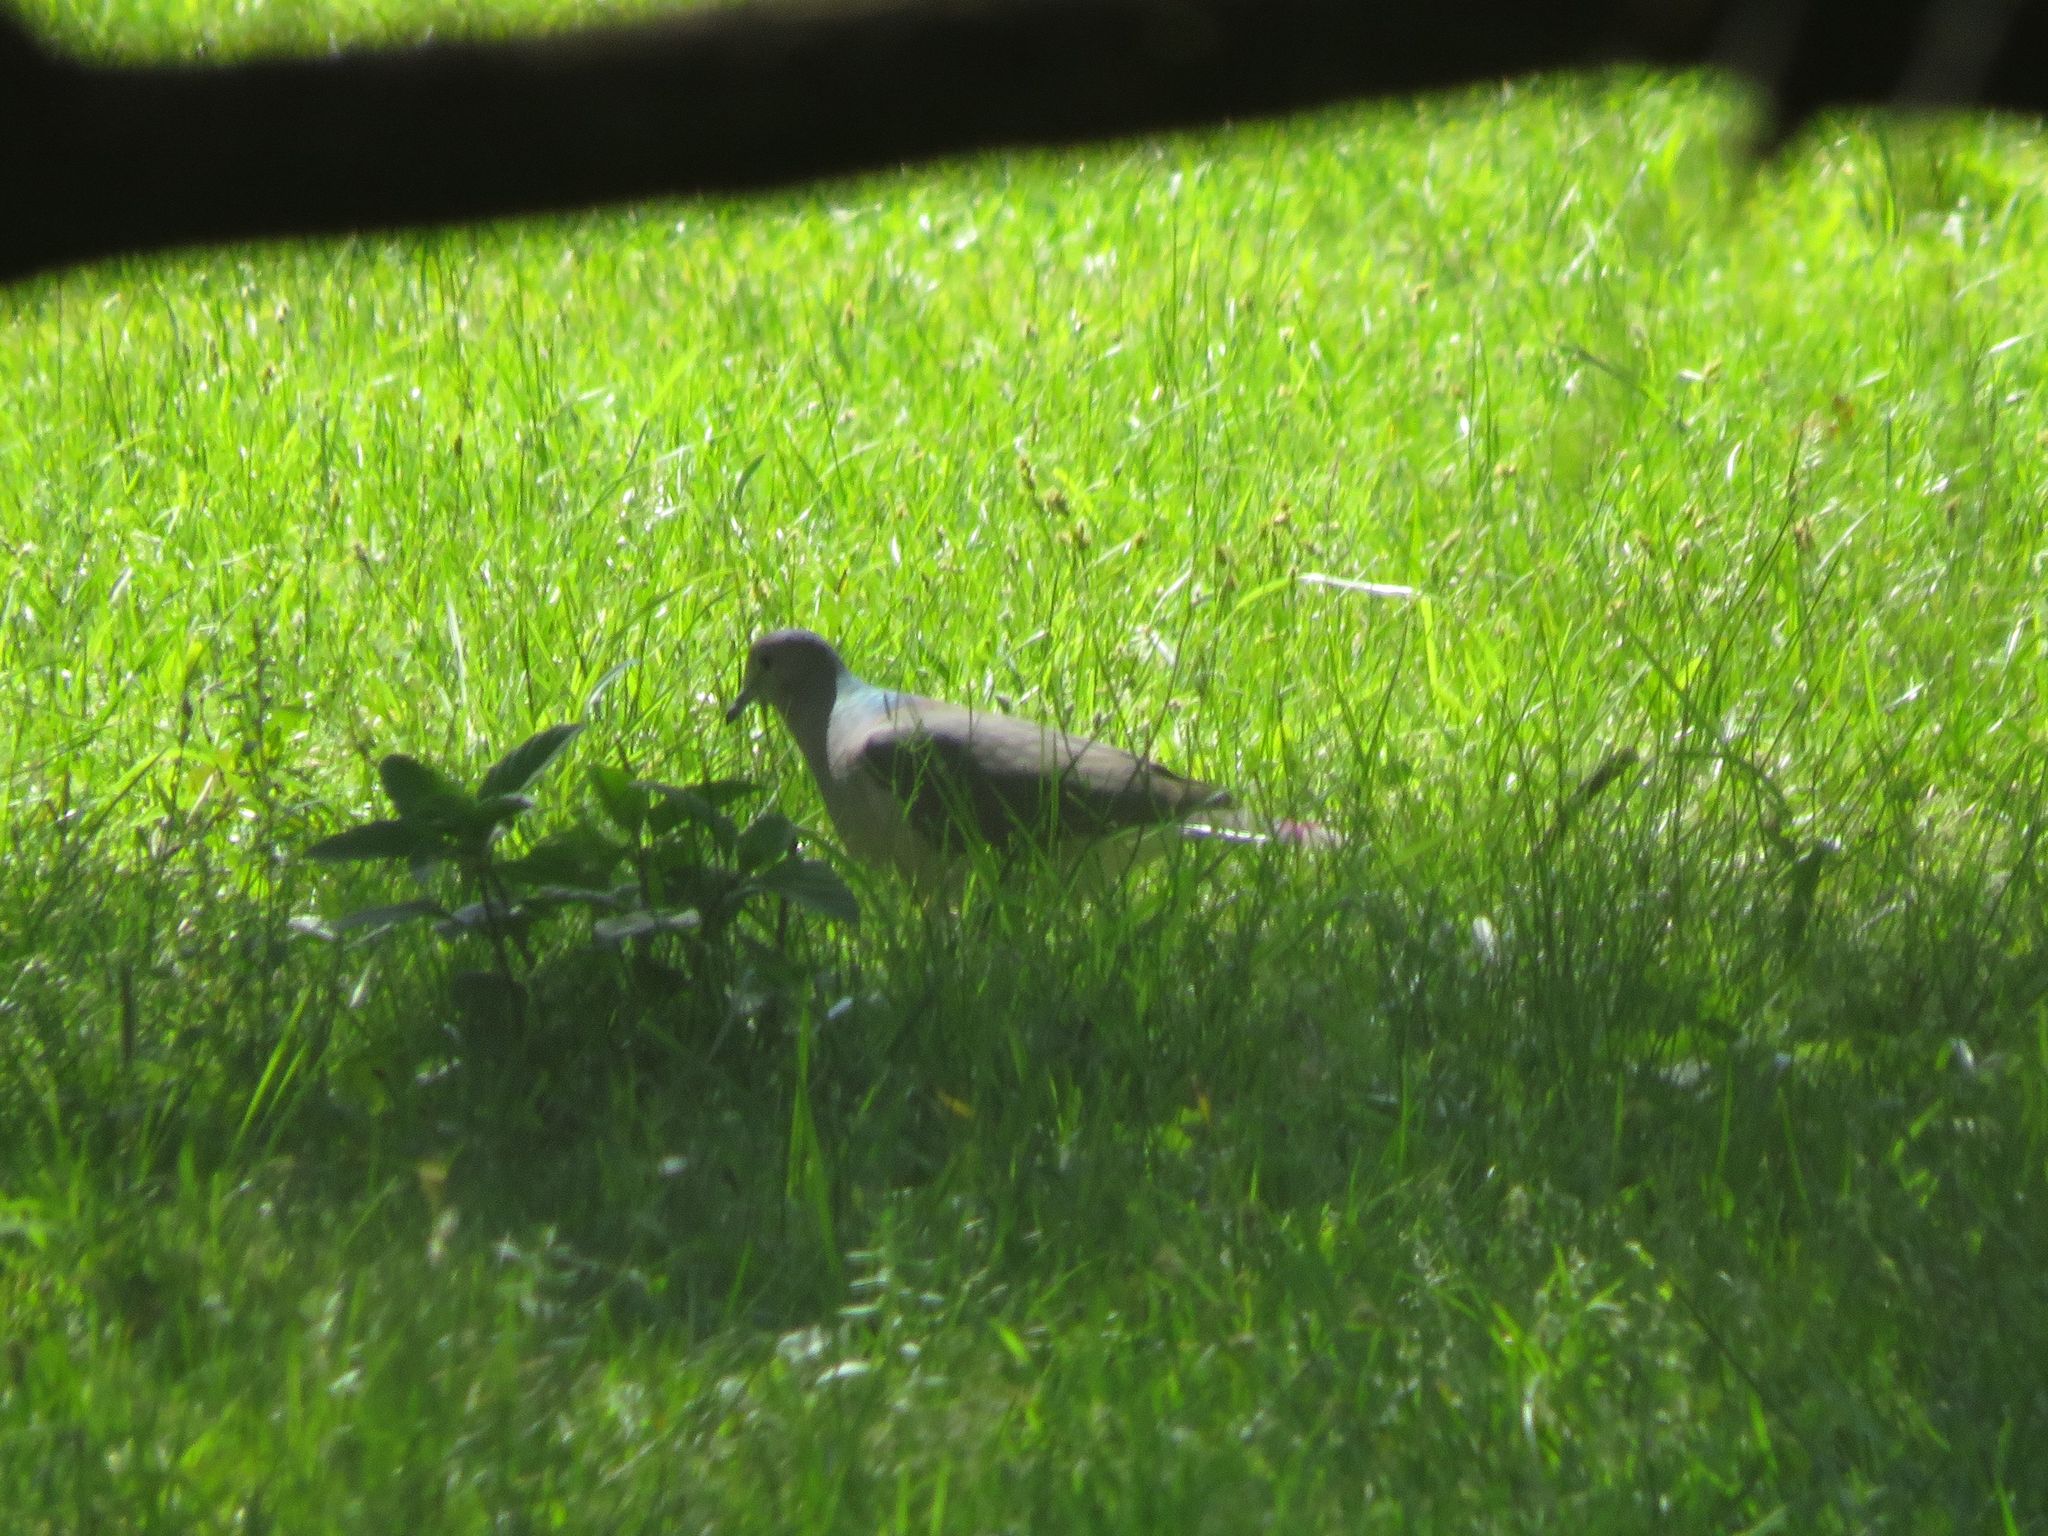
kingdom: Animalia
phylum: Chordata
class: Aves
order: Columbiformes
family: Columbidae
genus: Leptotila
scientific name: Leptotila verreauxi
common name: White-tipped dove
